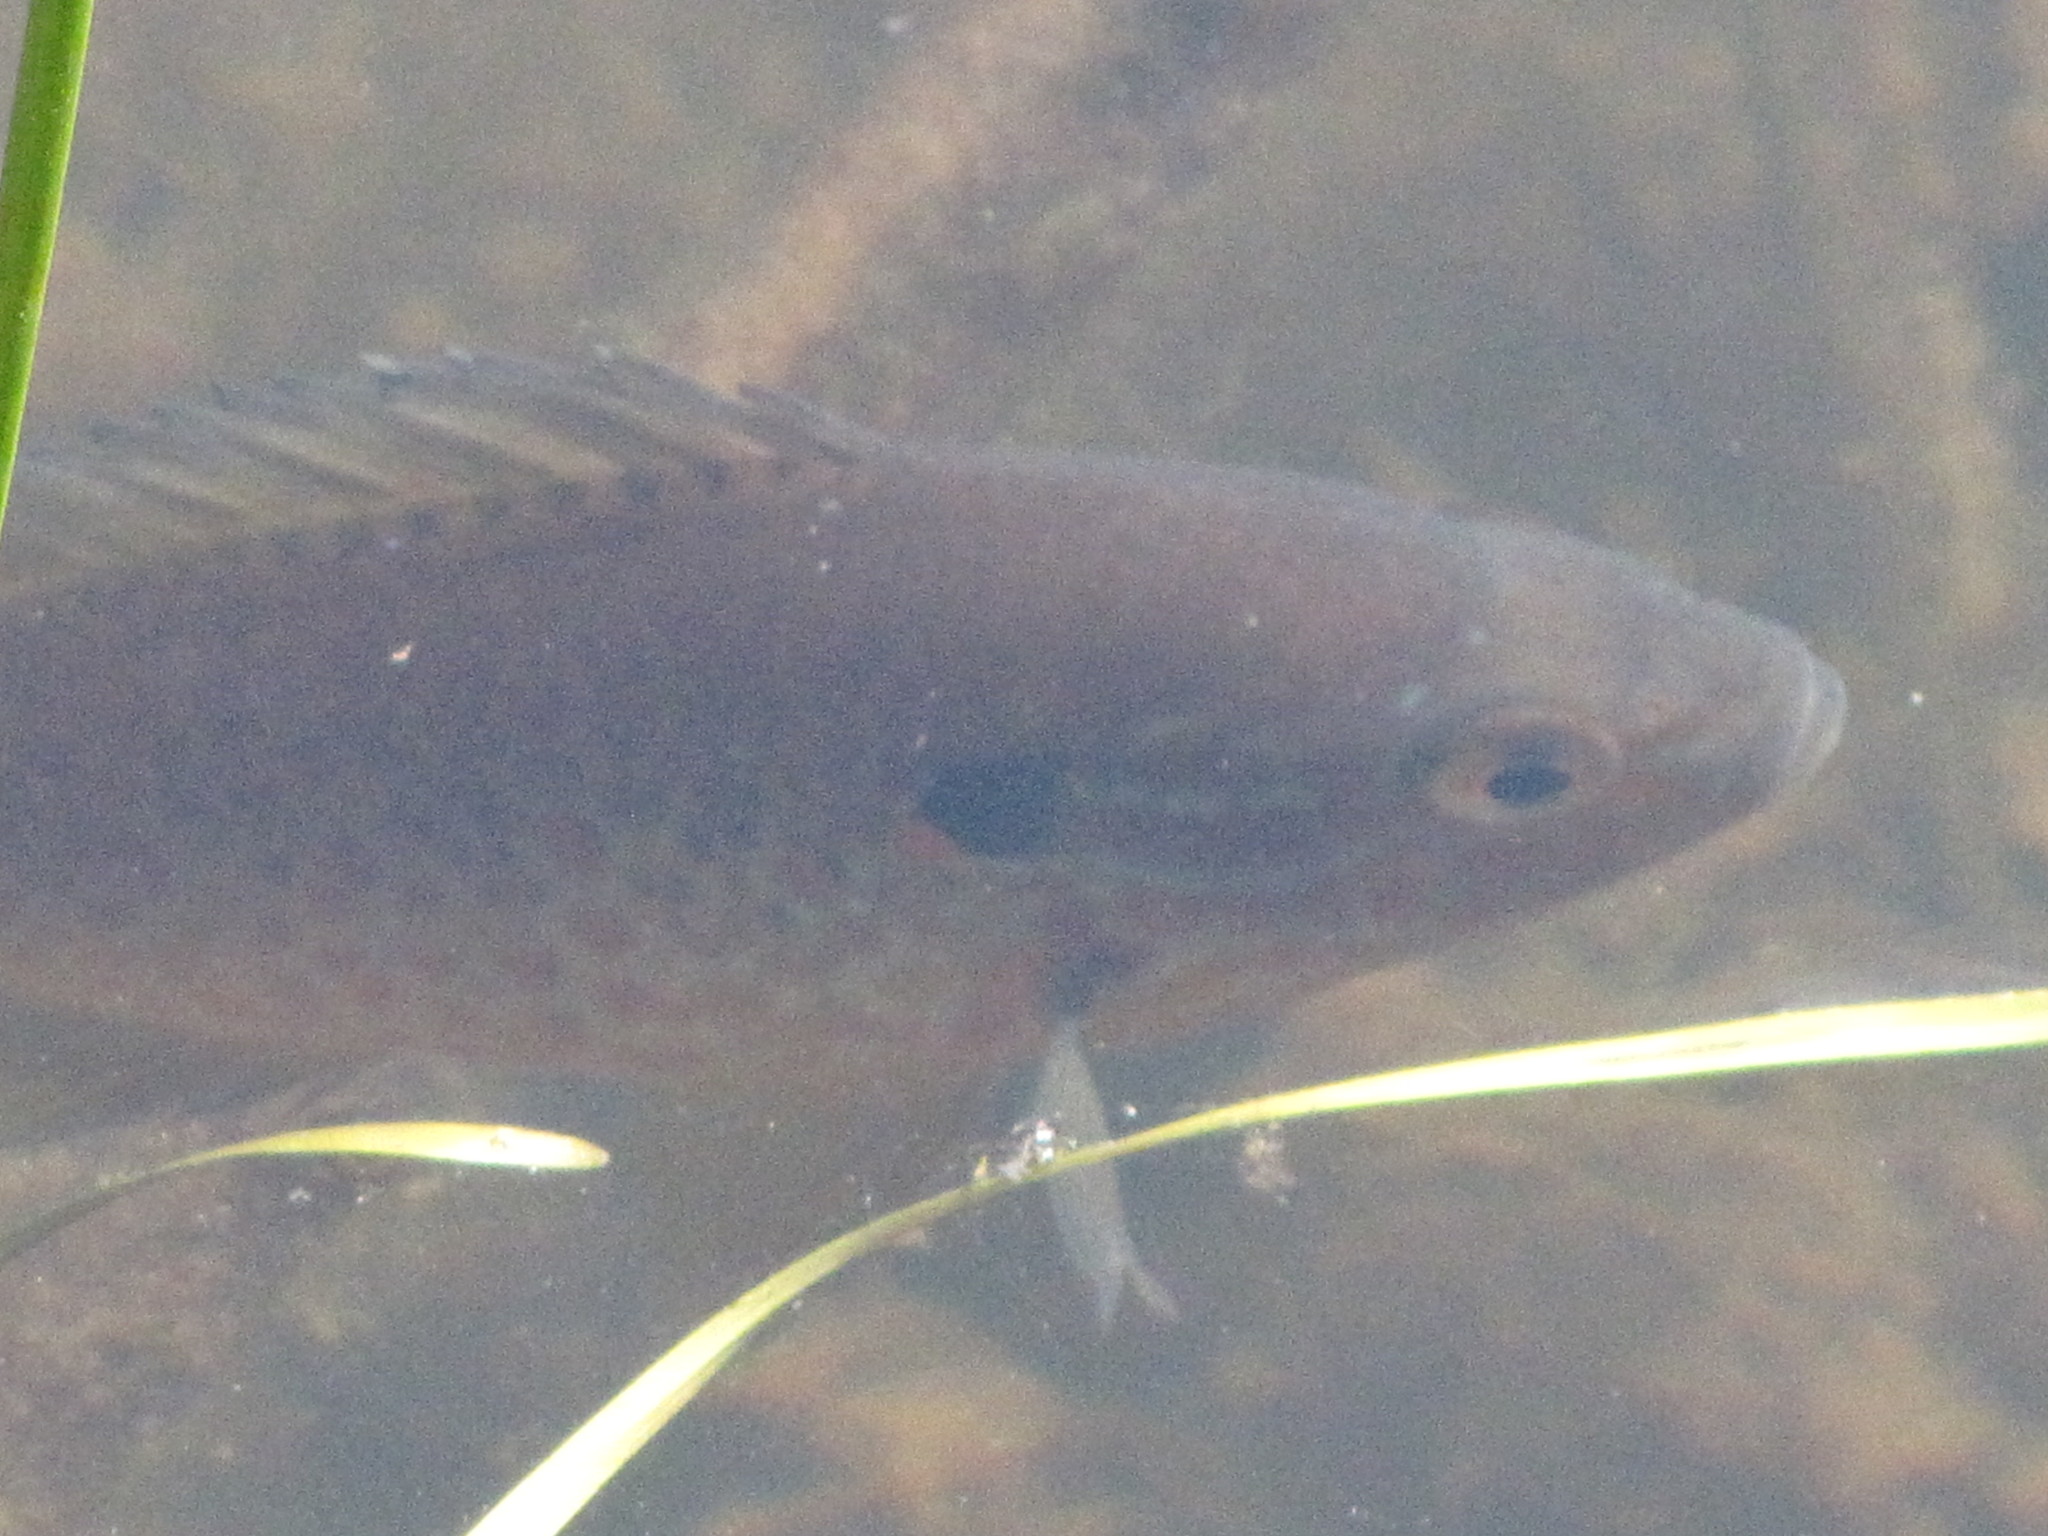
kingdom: Animalia
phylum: Chordata
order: Perciformes
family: Centrarchidae
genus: Lepomis
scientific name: Lepomis gibbosus
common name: Pumpkinseed
